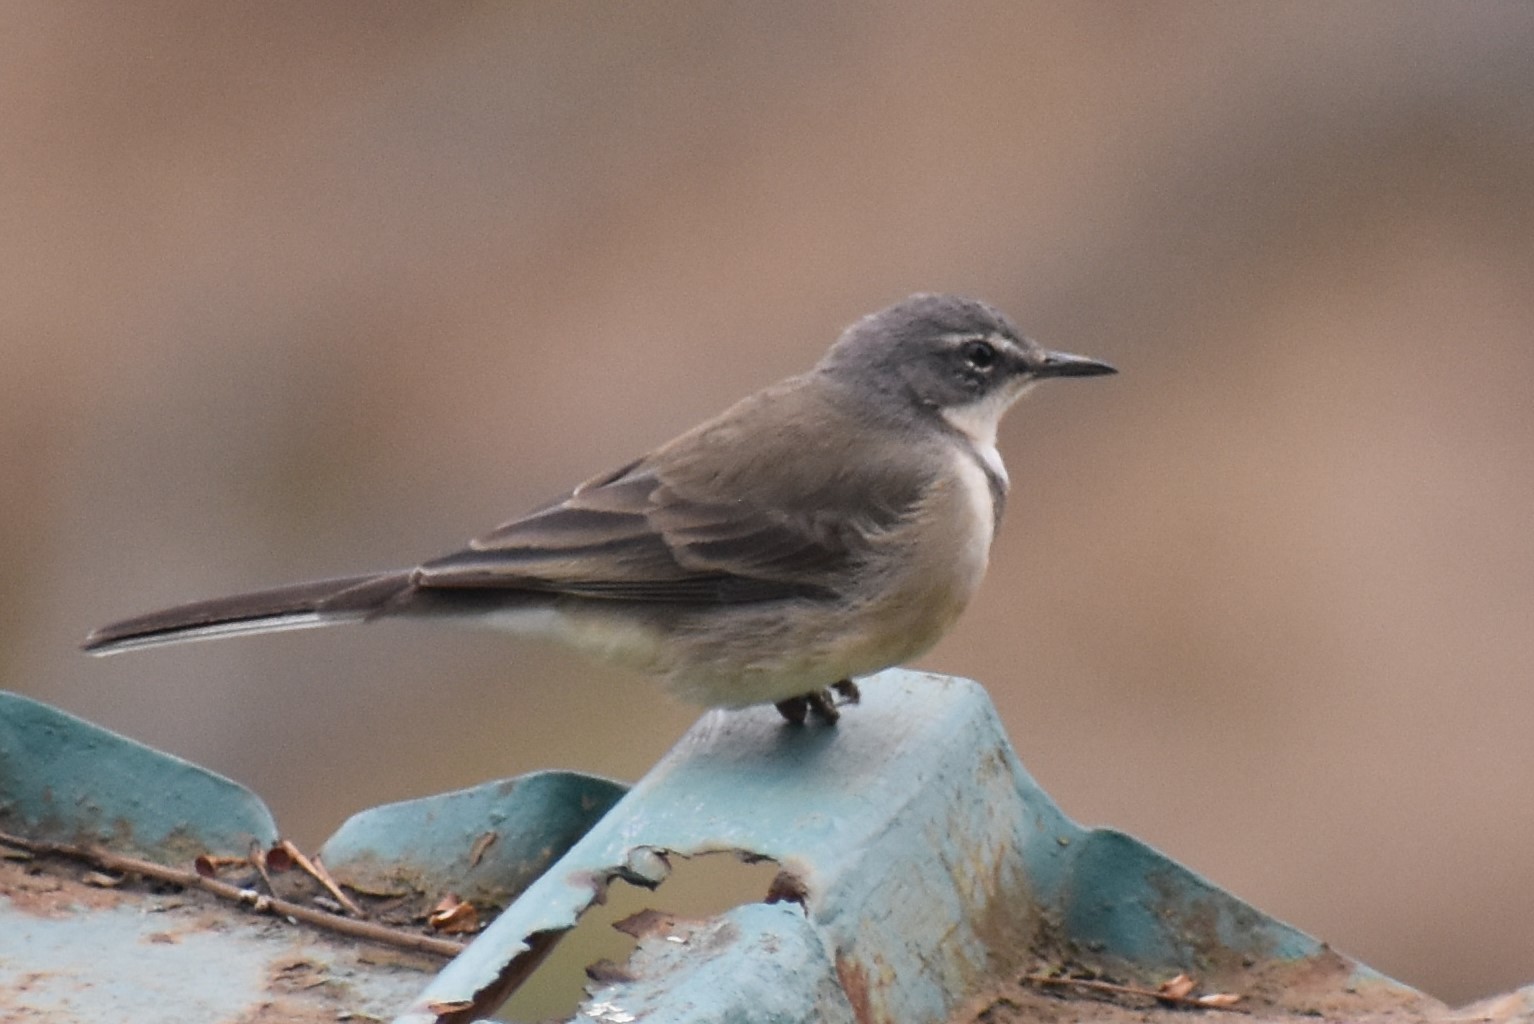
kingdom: Animalia
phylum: Chordata
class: Aves
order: Passeriformes
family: Motacillidae
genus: Motacilla
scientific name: Motacilla capensis
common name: Cape wagtail
